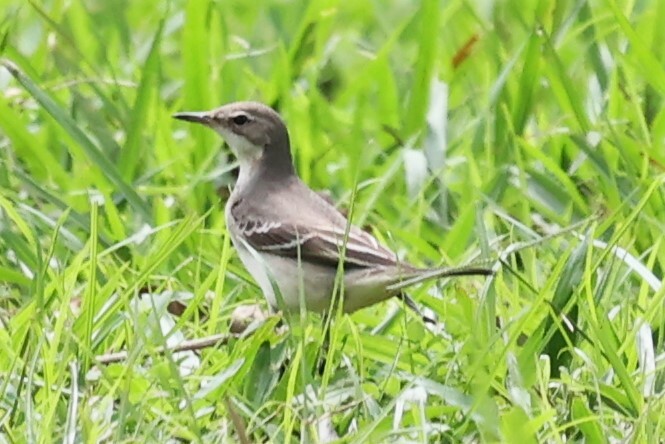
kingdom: Animalia
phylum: Chordata
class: Aves
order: Passeriformes
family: Motacillidae
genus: Motacilla
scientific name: Motacilla flava
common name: Western yellow wagtail
